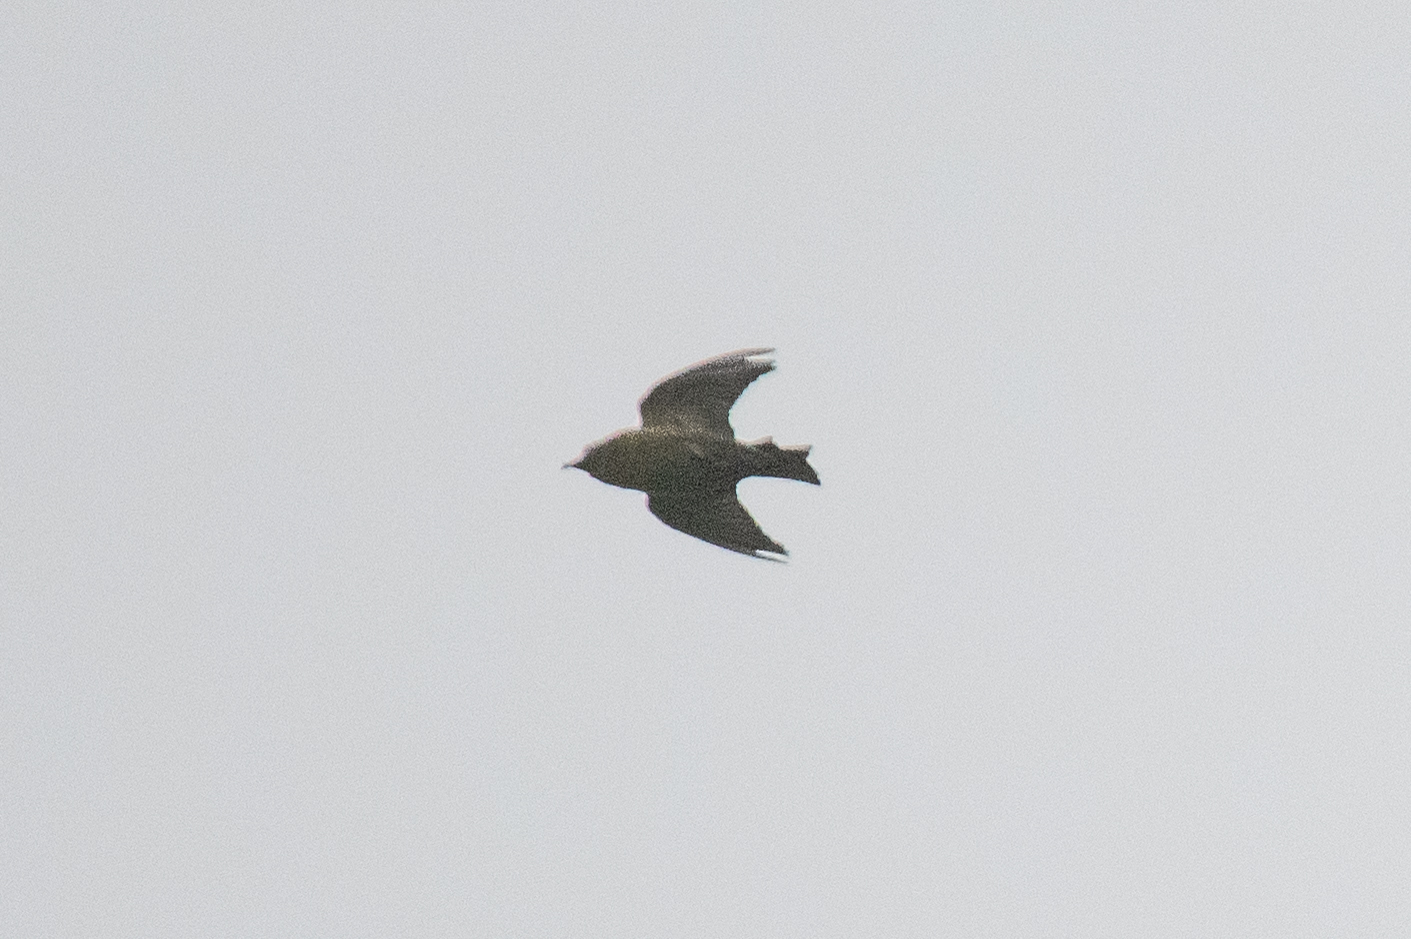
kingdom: Animalia
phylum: Chordata
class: Aves
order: Passeriformes
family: Fringillidae
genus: Loxia
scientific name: Loxia curvirostra
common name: Red crossbill
